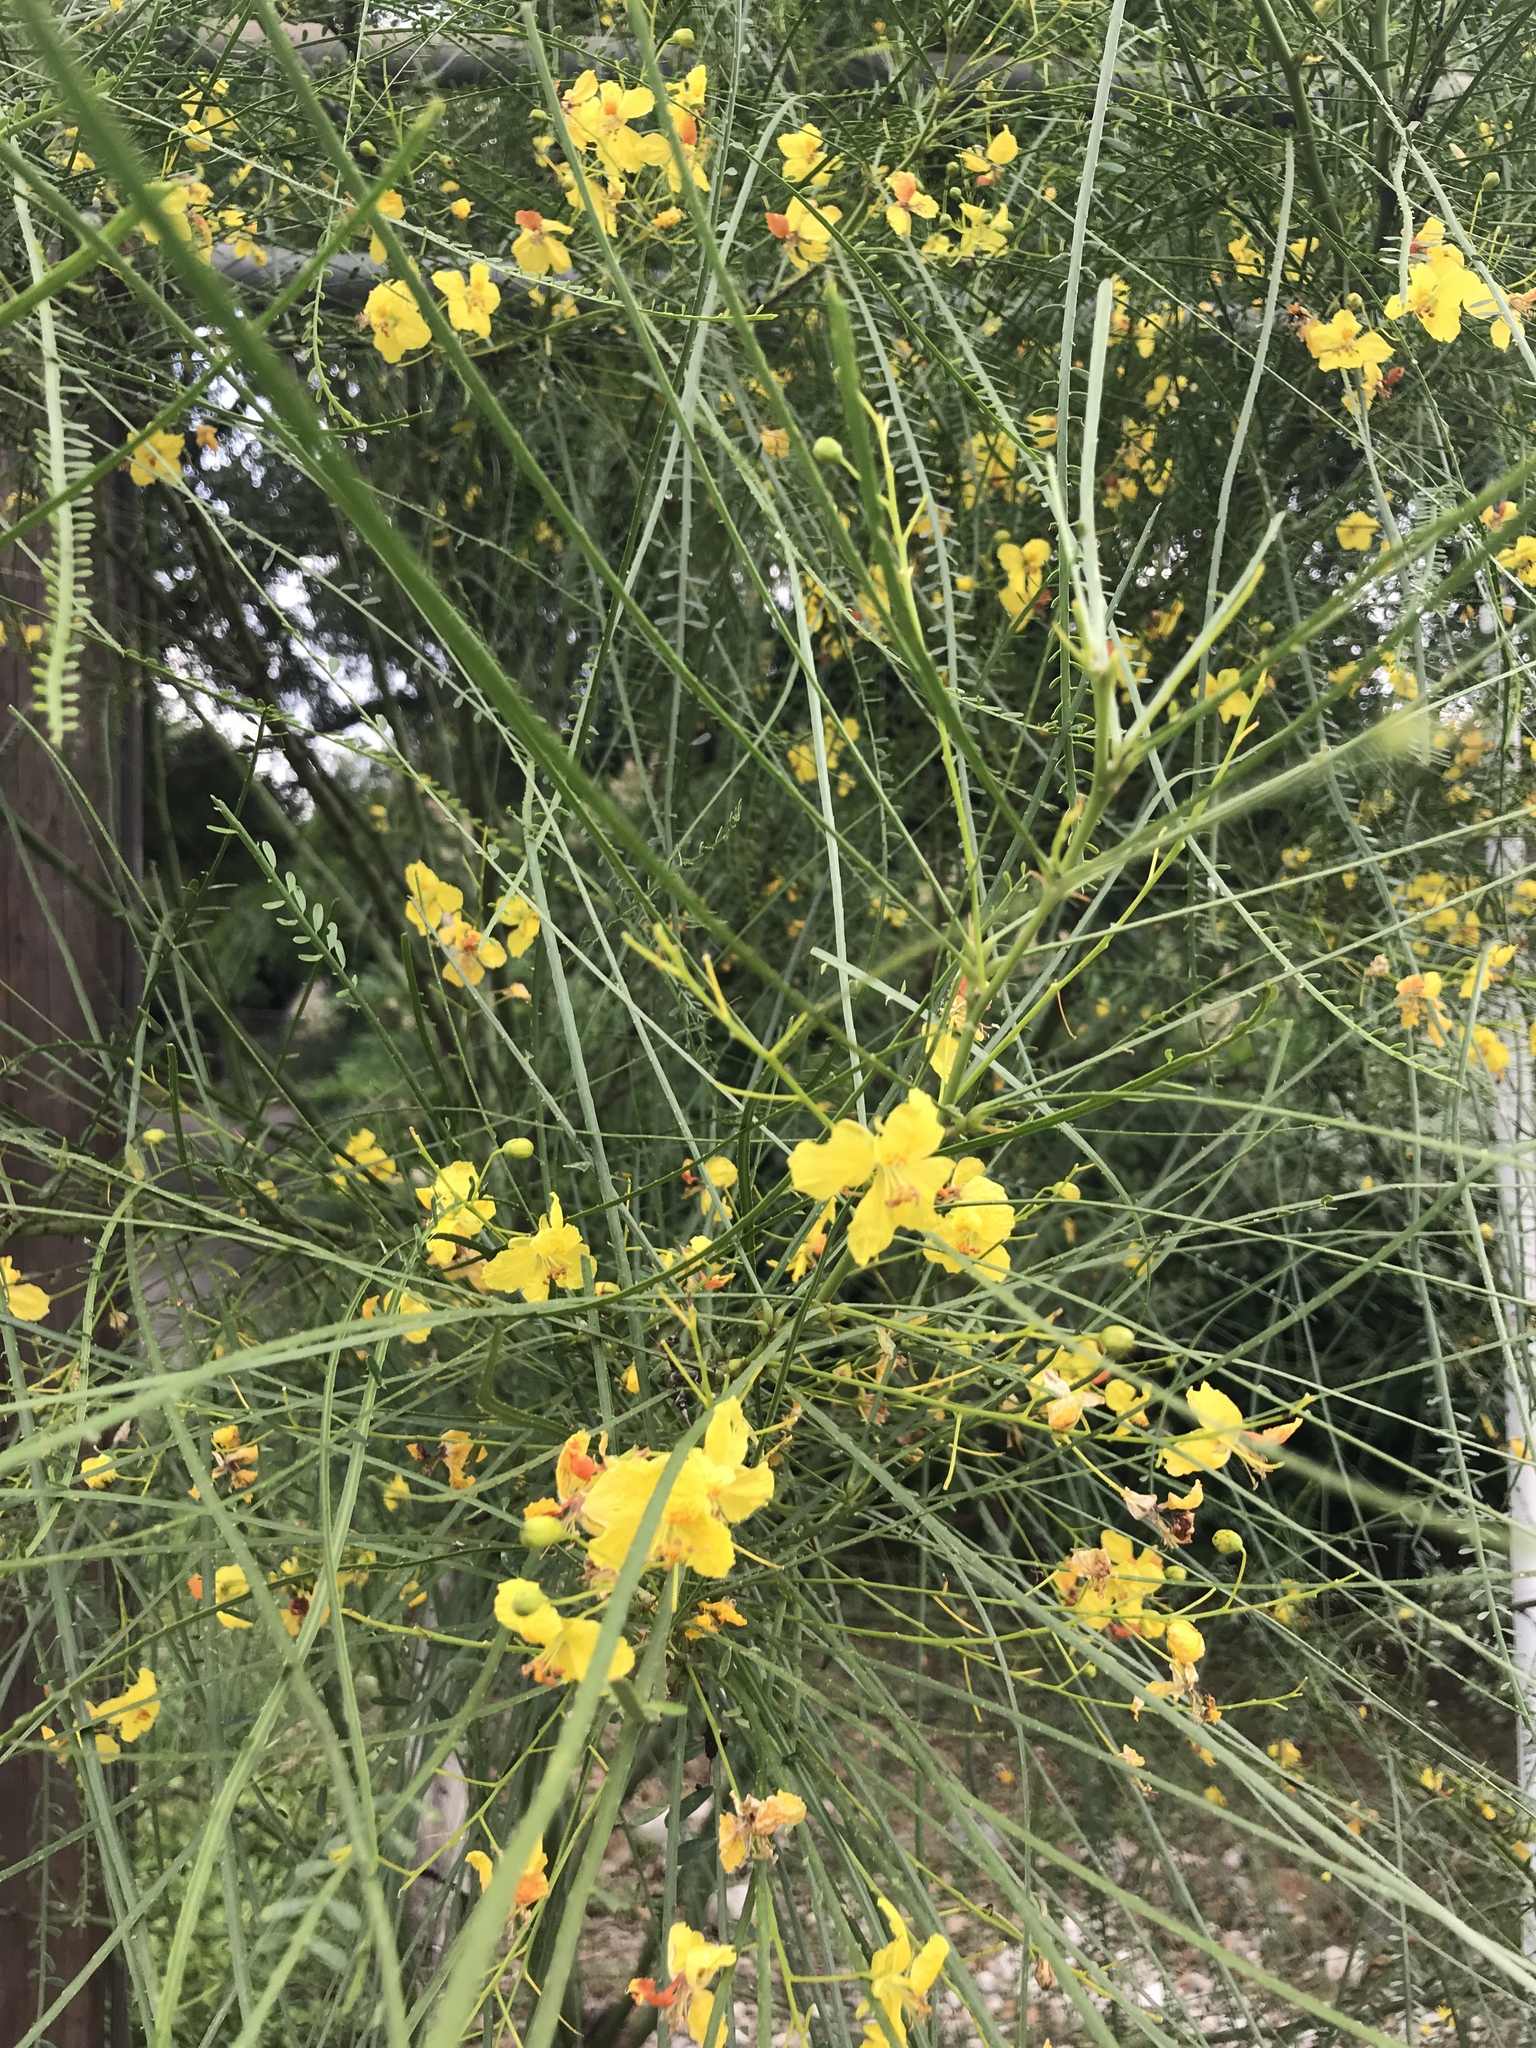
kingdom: Plantae
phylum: Tracheophyta
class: Magnoliopsida
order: Fabales
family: Fabaceae
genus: Parkinsonia
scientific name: Parkinsonia aculeata
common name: Jerusalem thorn
